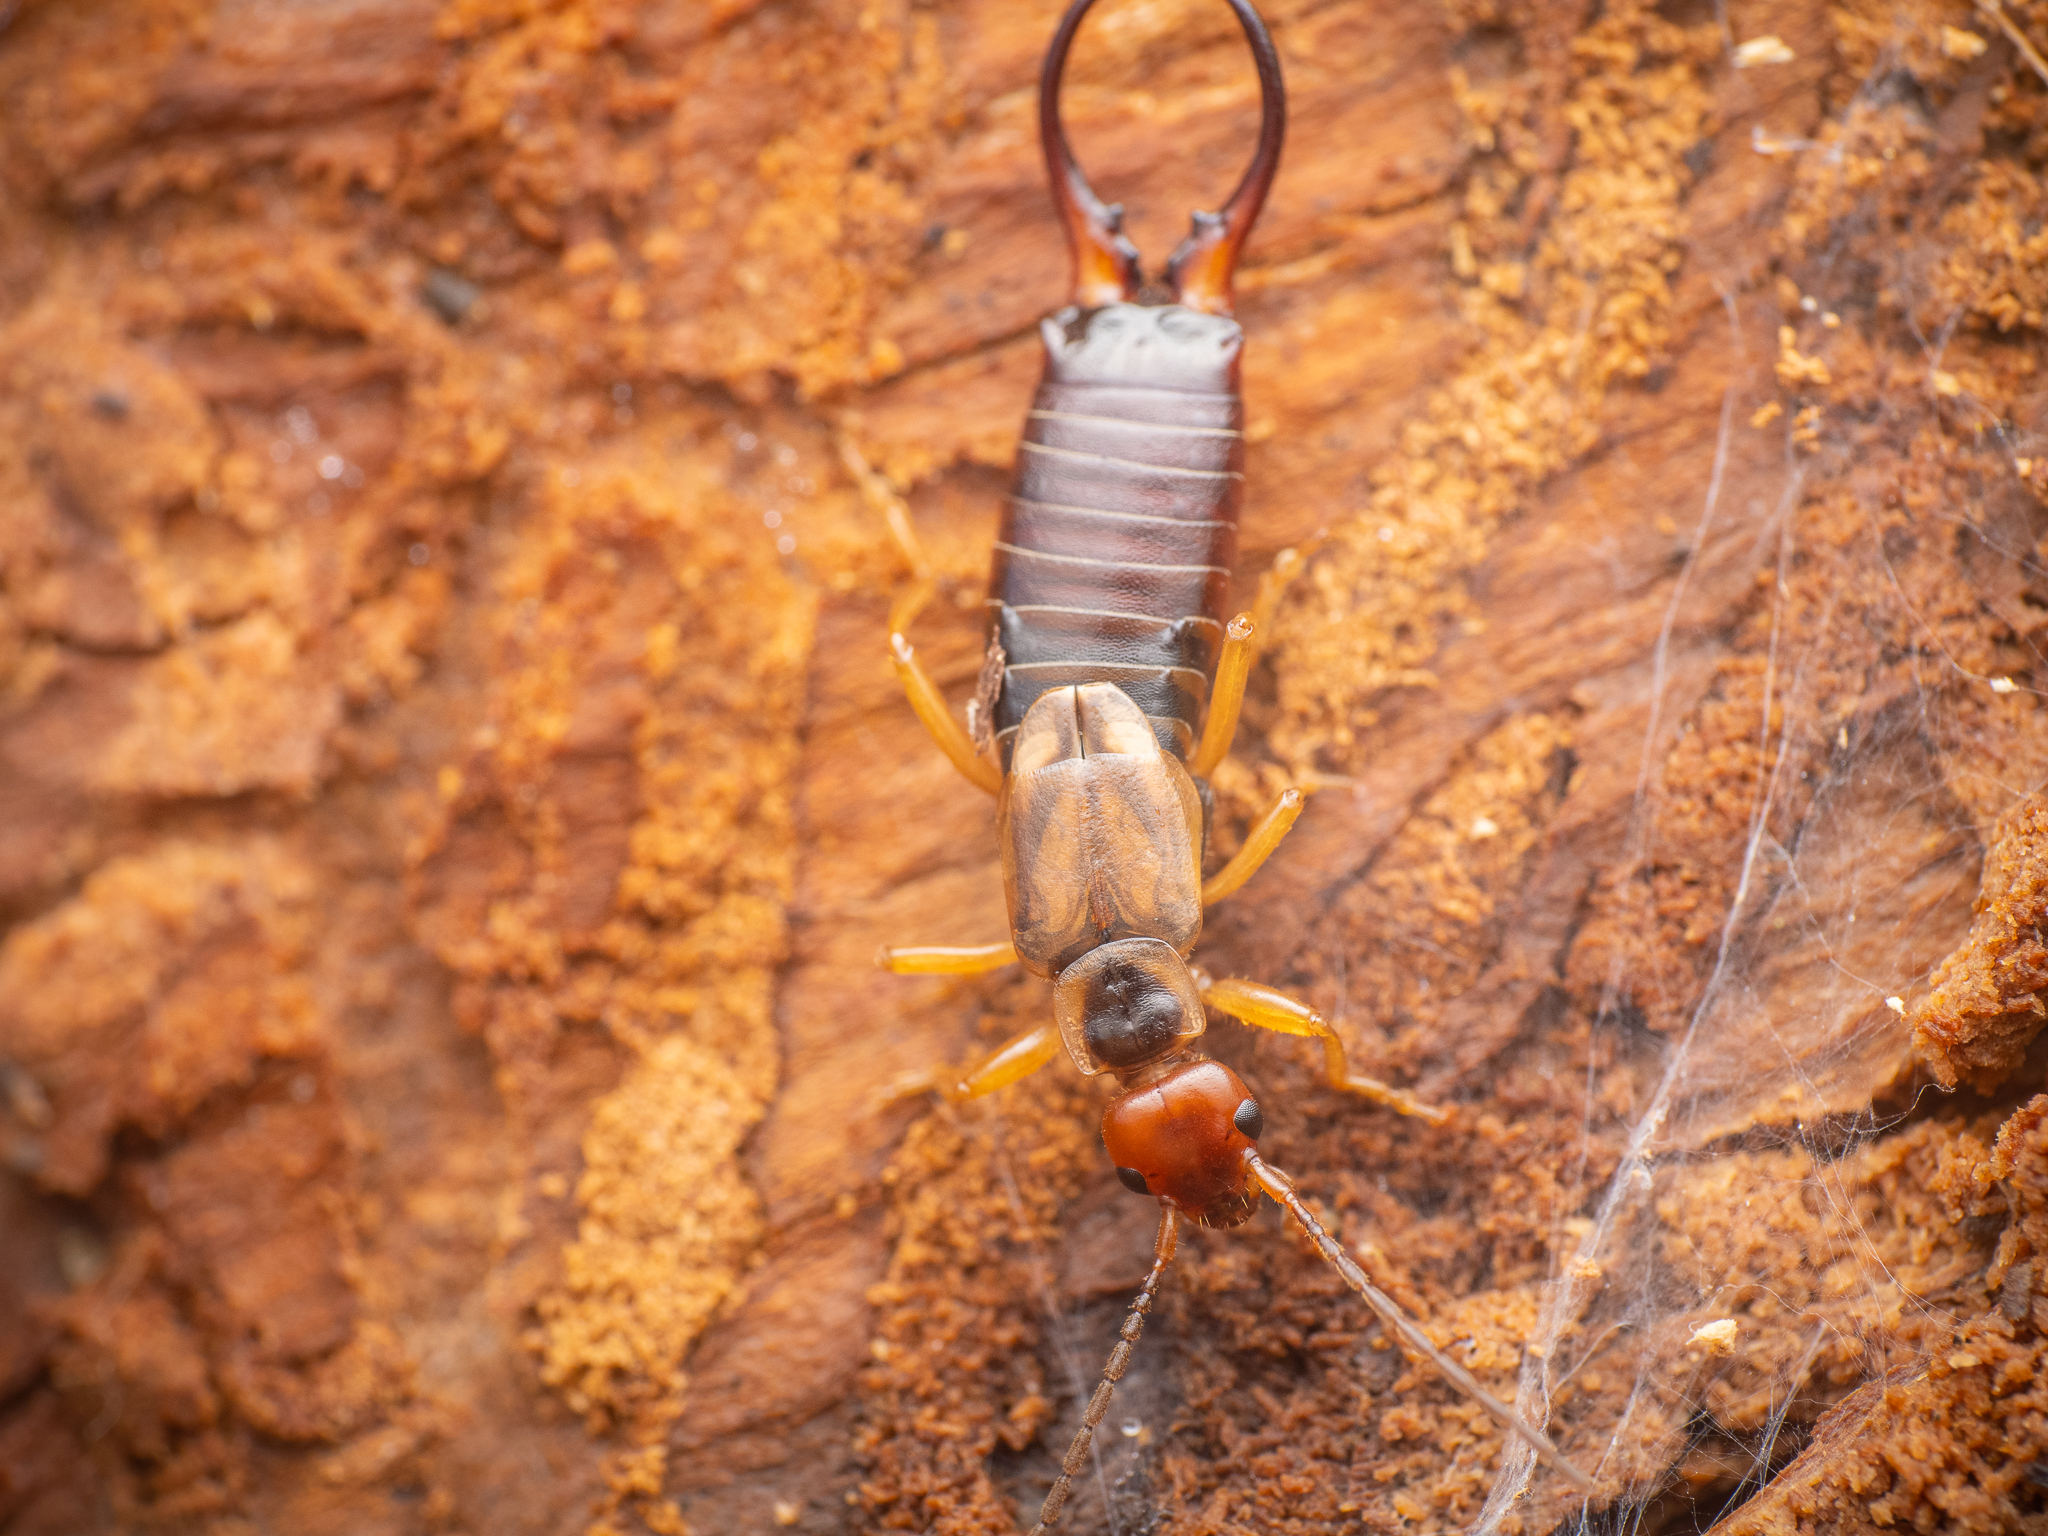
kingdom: Animalia
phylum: Arthropoda
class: Insecta
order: Dermaptera
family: Forficulidae
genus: Forficula
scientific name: Forficula
